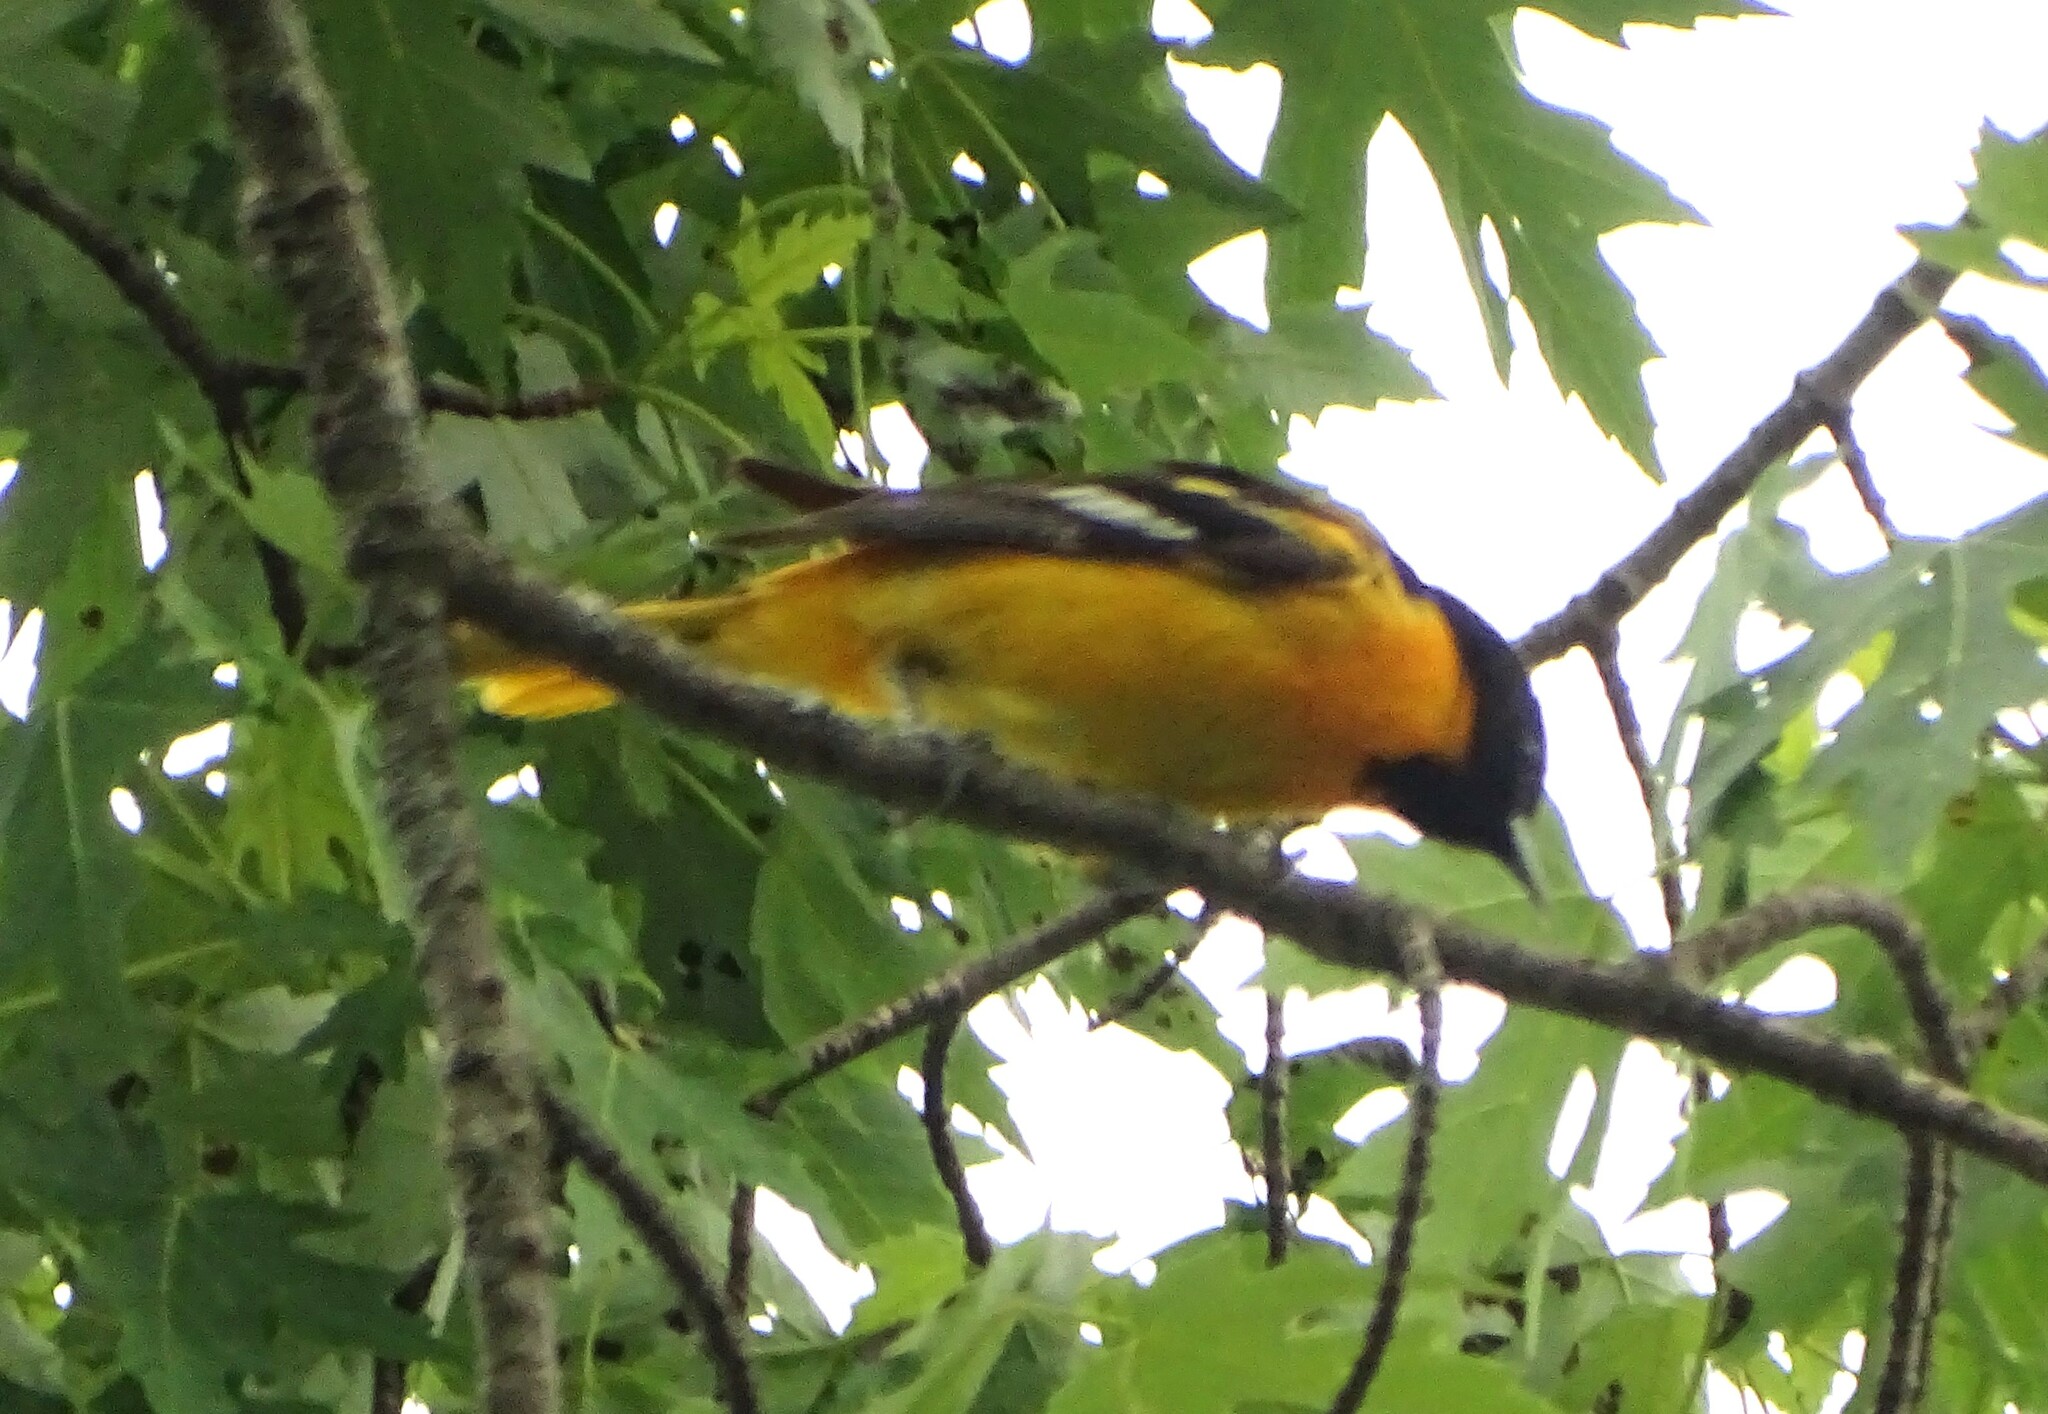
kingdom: Animalia
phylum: Chordata
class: Aves
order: Passeriformes
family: Icteridae
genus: Icterus
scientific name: Icterus galbula
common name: Baltimore oriole
